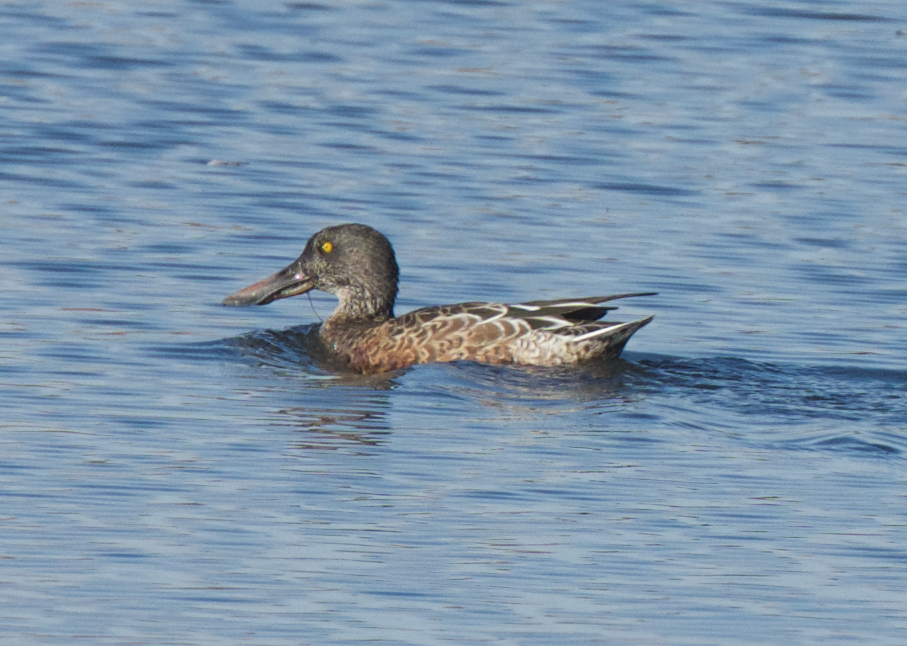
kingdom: Animalia
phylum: Chordata
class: Aves
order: Anseriformes
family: Anatidae
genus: Spatula
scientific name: Spatula clypeata
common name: Northern shoveler
